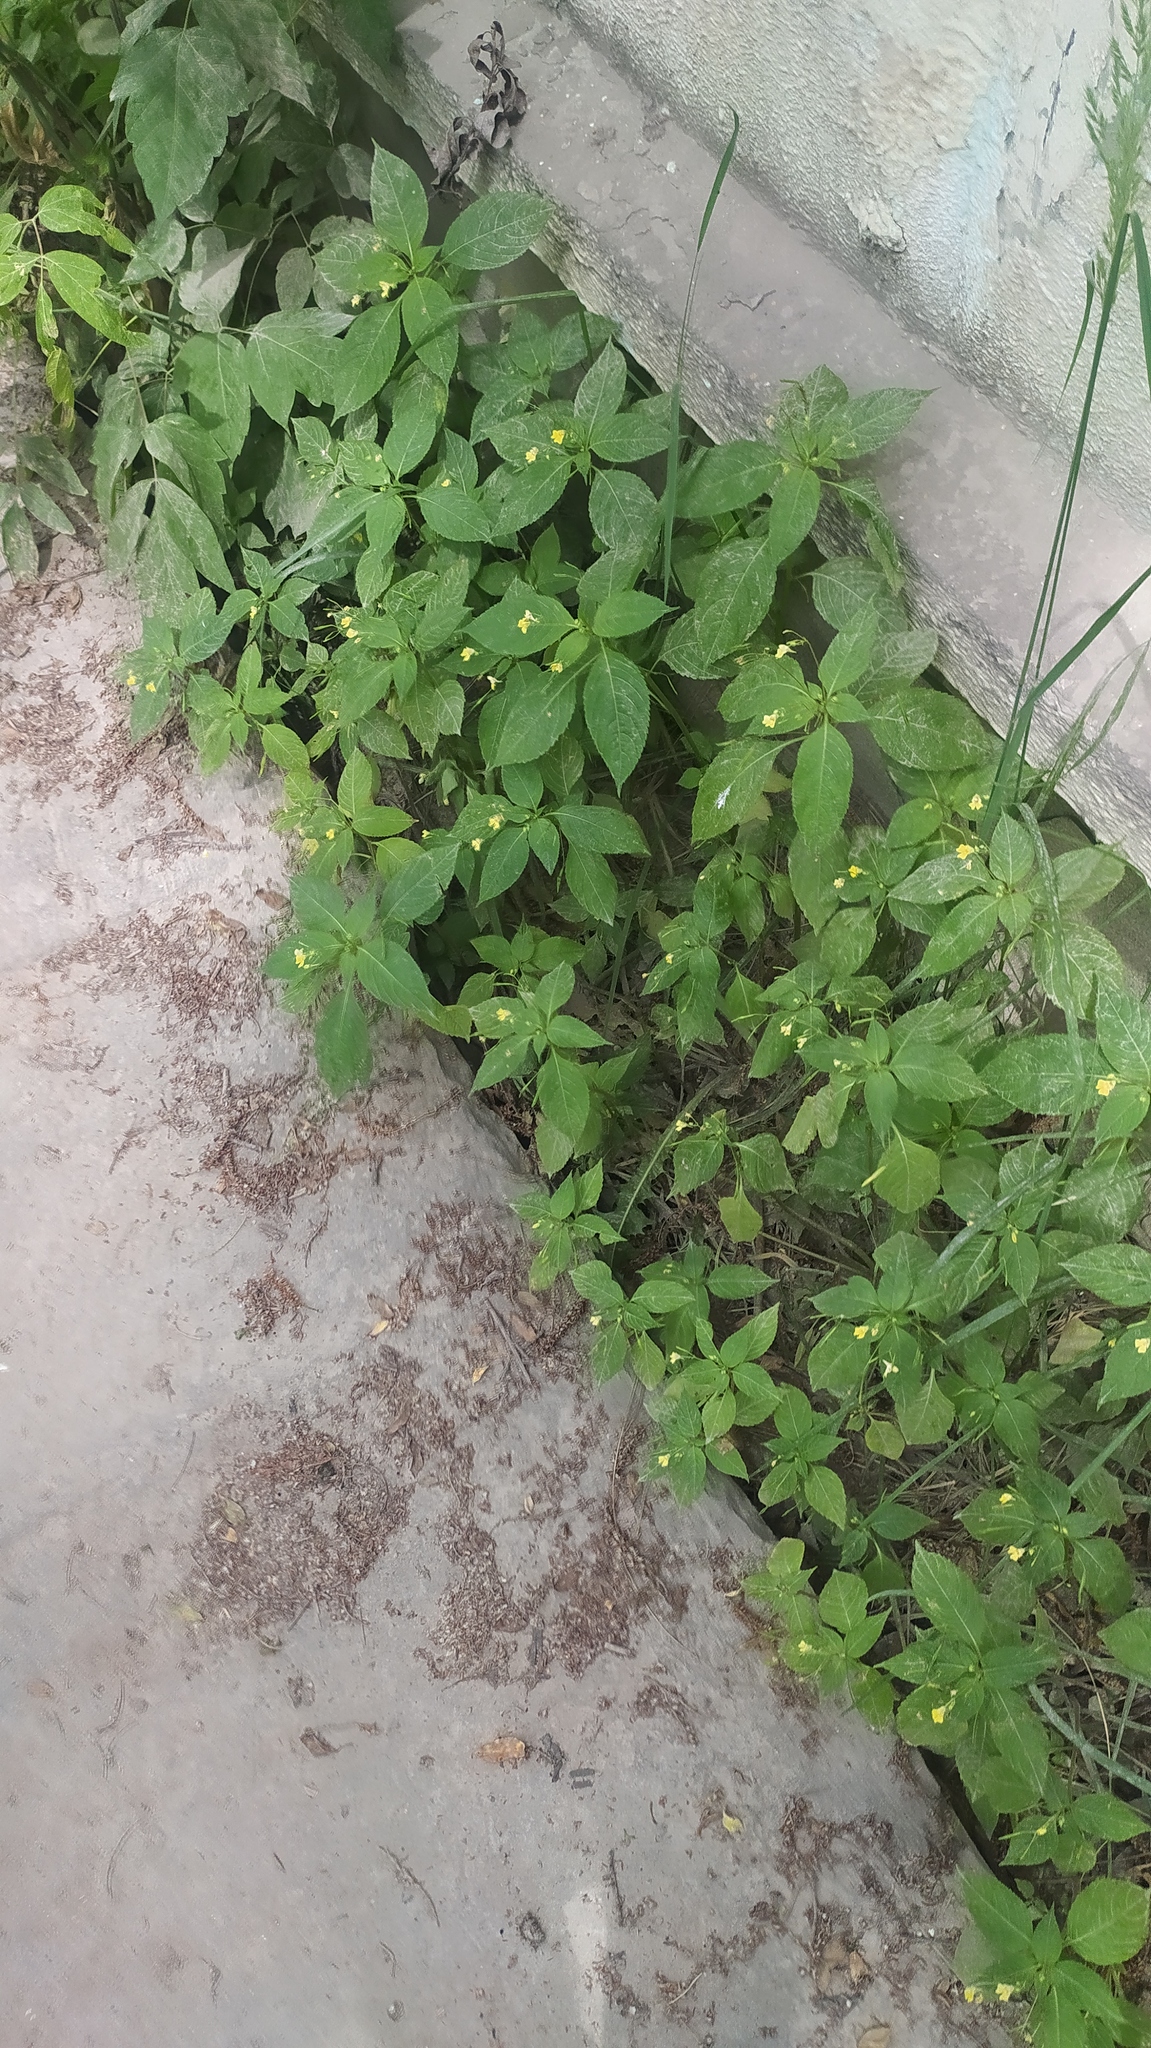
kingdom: Plantae
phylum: Tracheophyta
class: Magnoliopsida
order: Ericales
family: Balsaminaceae
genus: Impatiens
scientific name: Impatiens parviflora
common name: Small balsam
